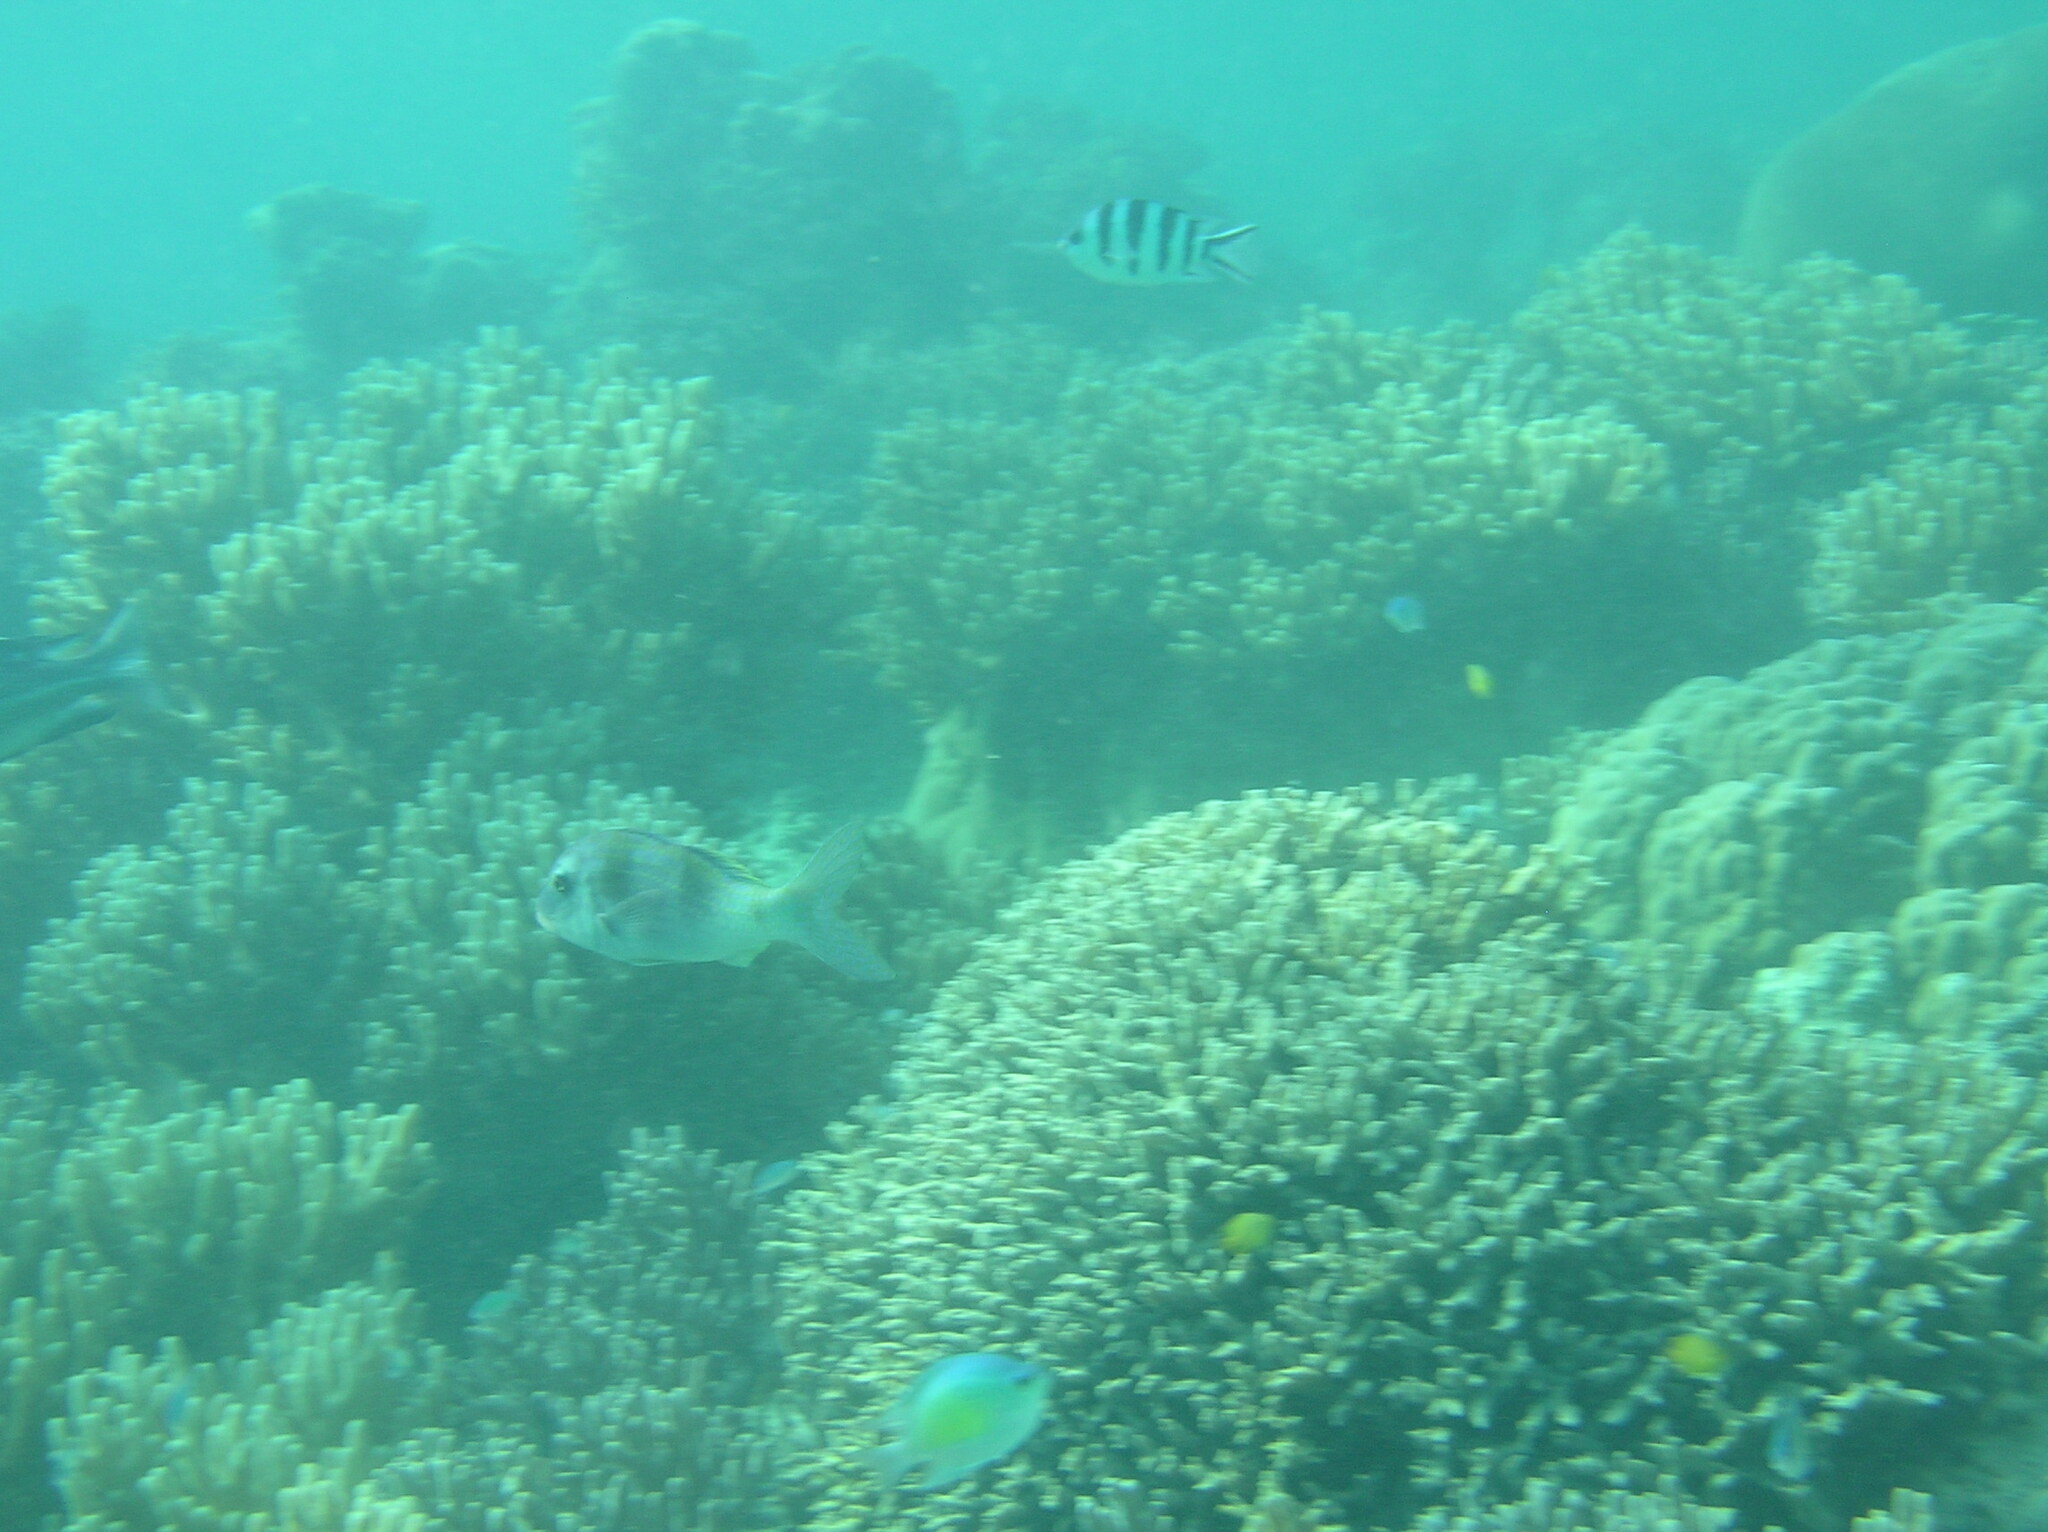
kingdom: Animalia
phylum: Chordata
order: Perciformes
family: Mullidae
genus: Parupeneus
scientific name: Parupeneus crassilabris
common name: Doublebar goatfish
